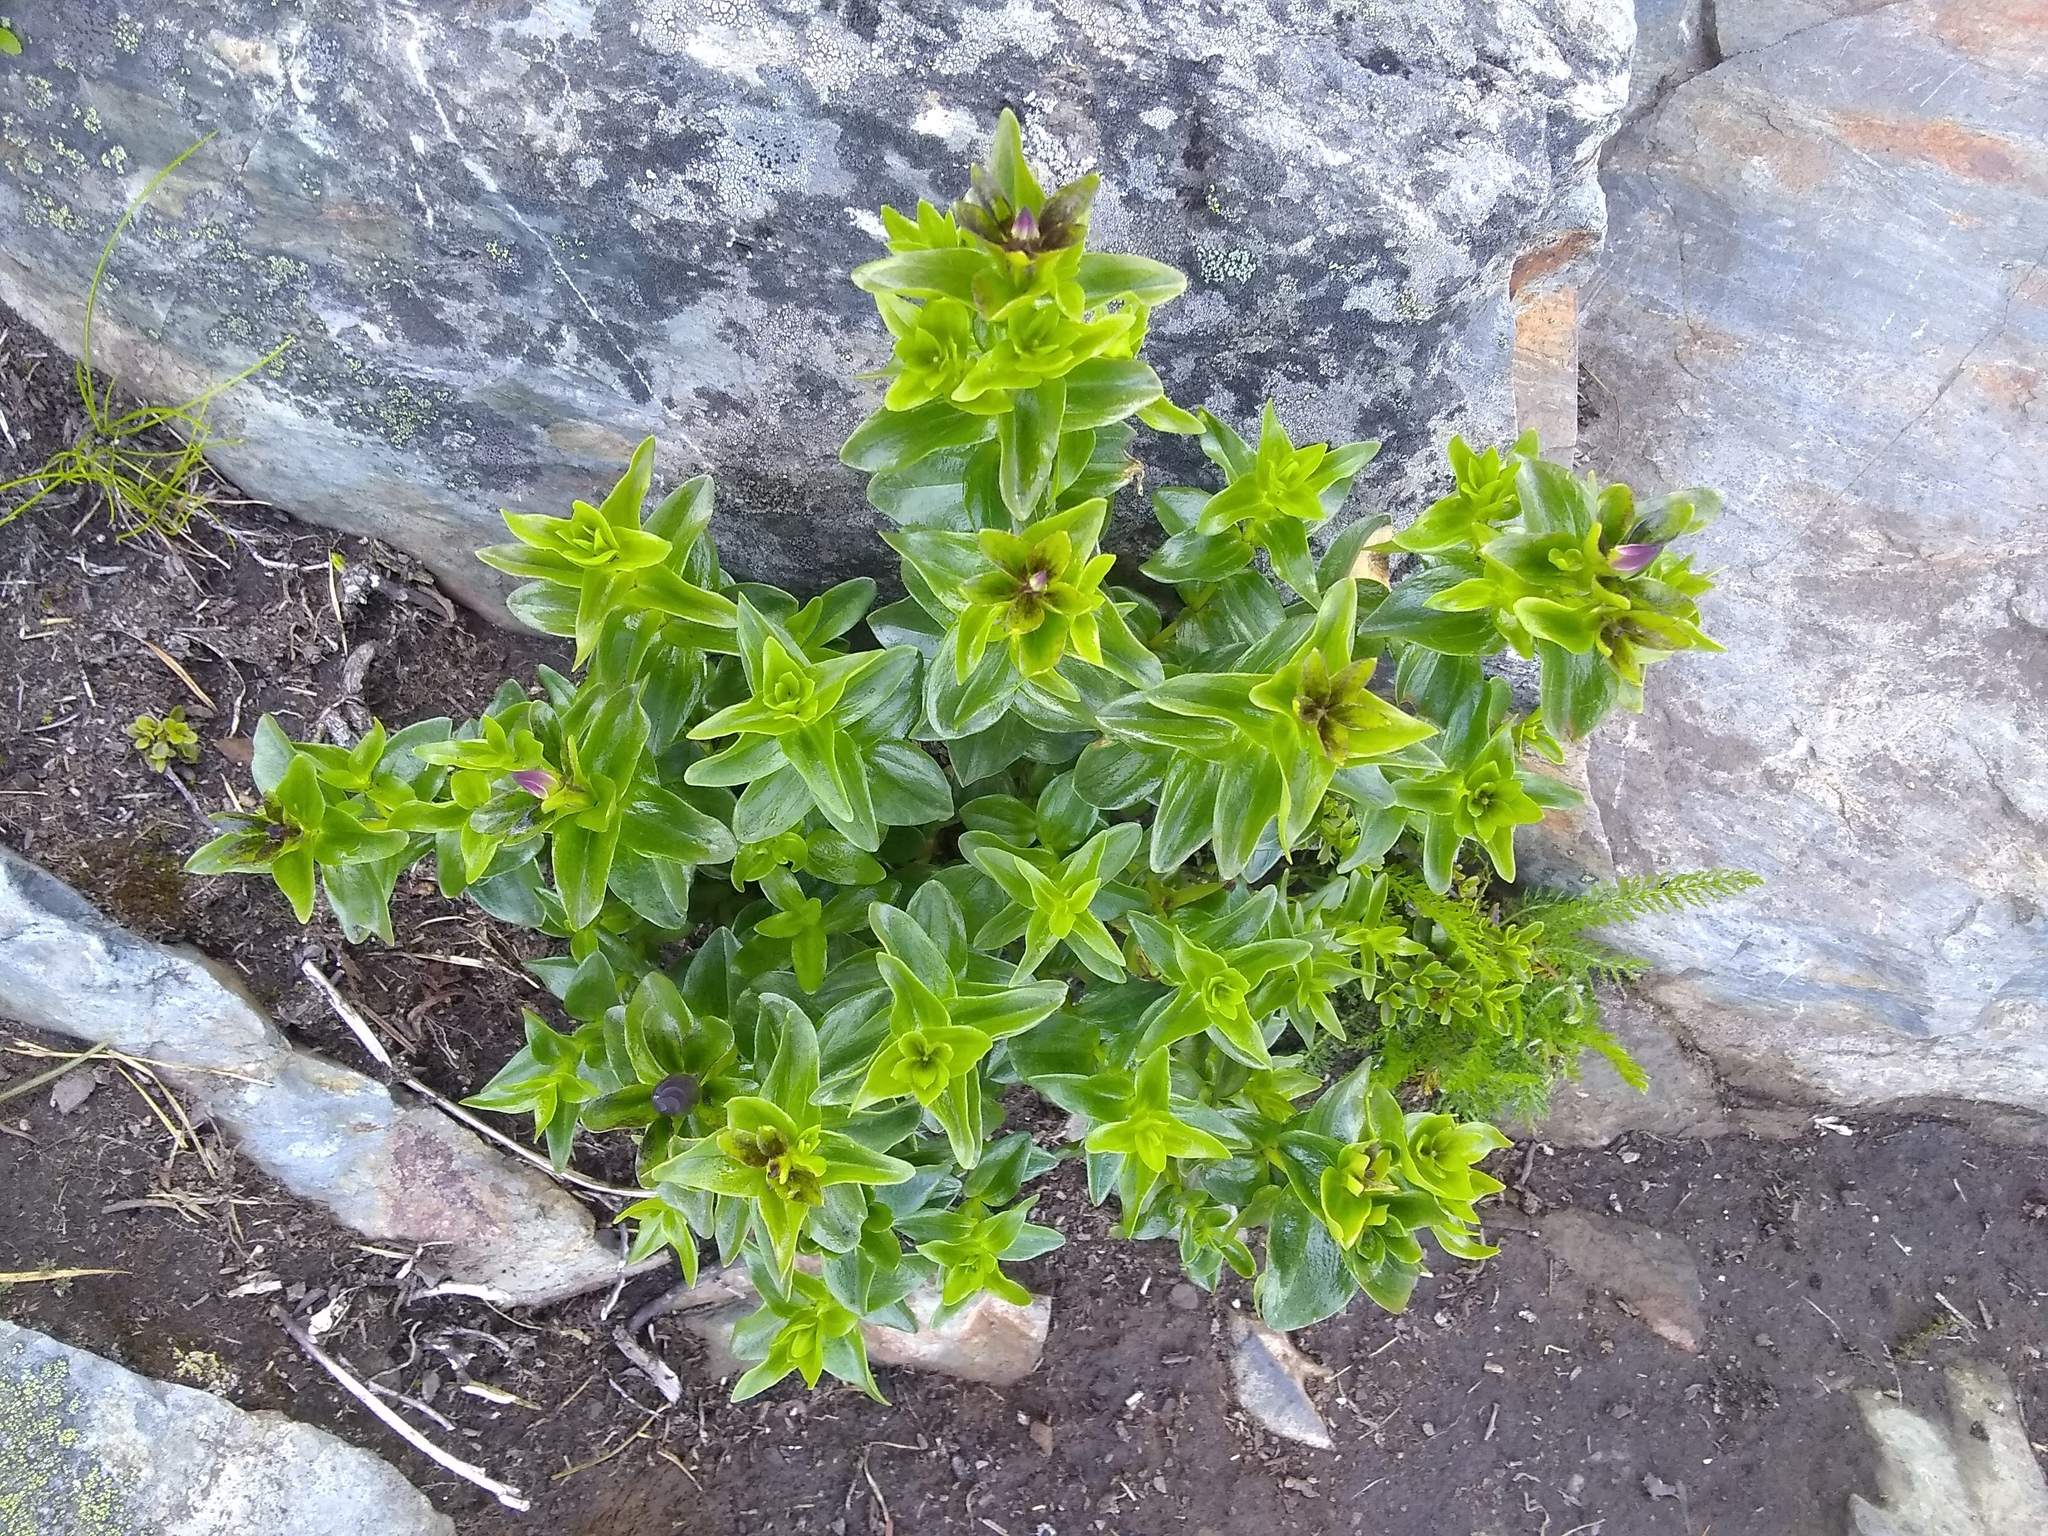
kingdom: Plantae
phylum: Tracheophyta
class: Magnoliopsida
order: Gentianales
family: Gentianaceae
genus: Gentiana
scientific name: Gentiana calycosa
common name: Rainier pleated gentian
